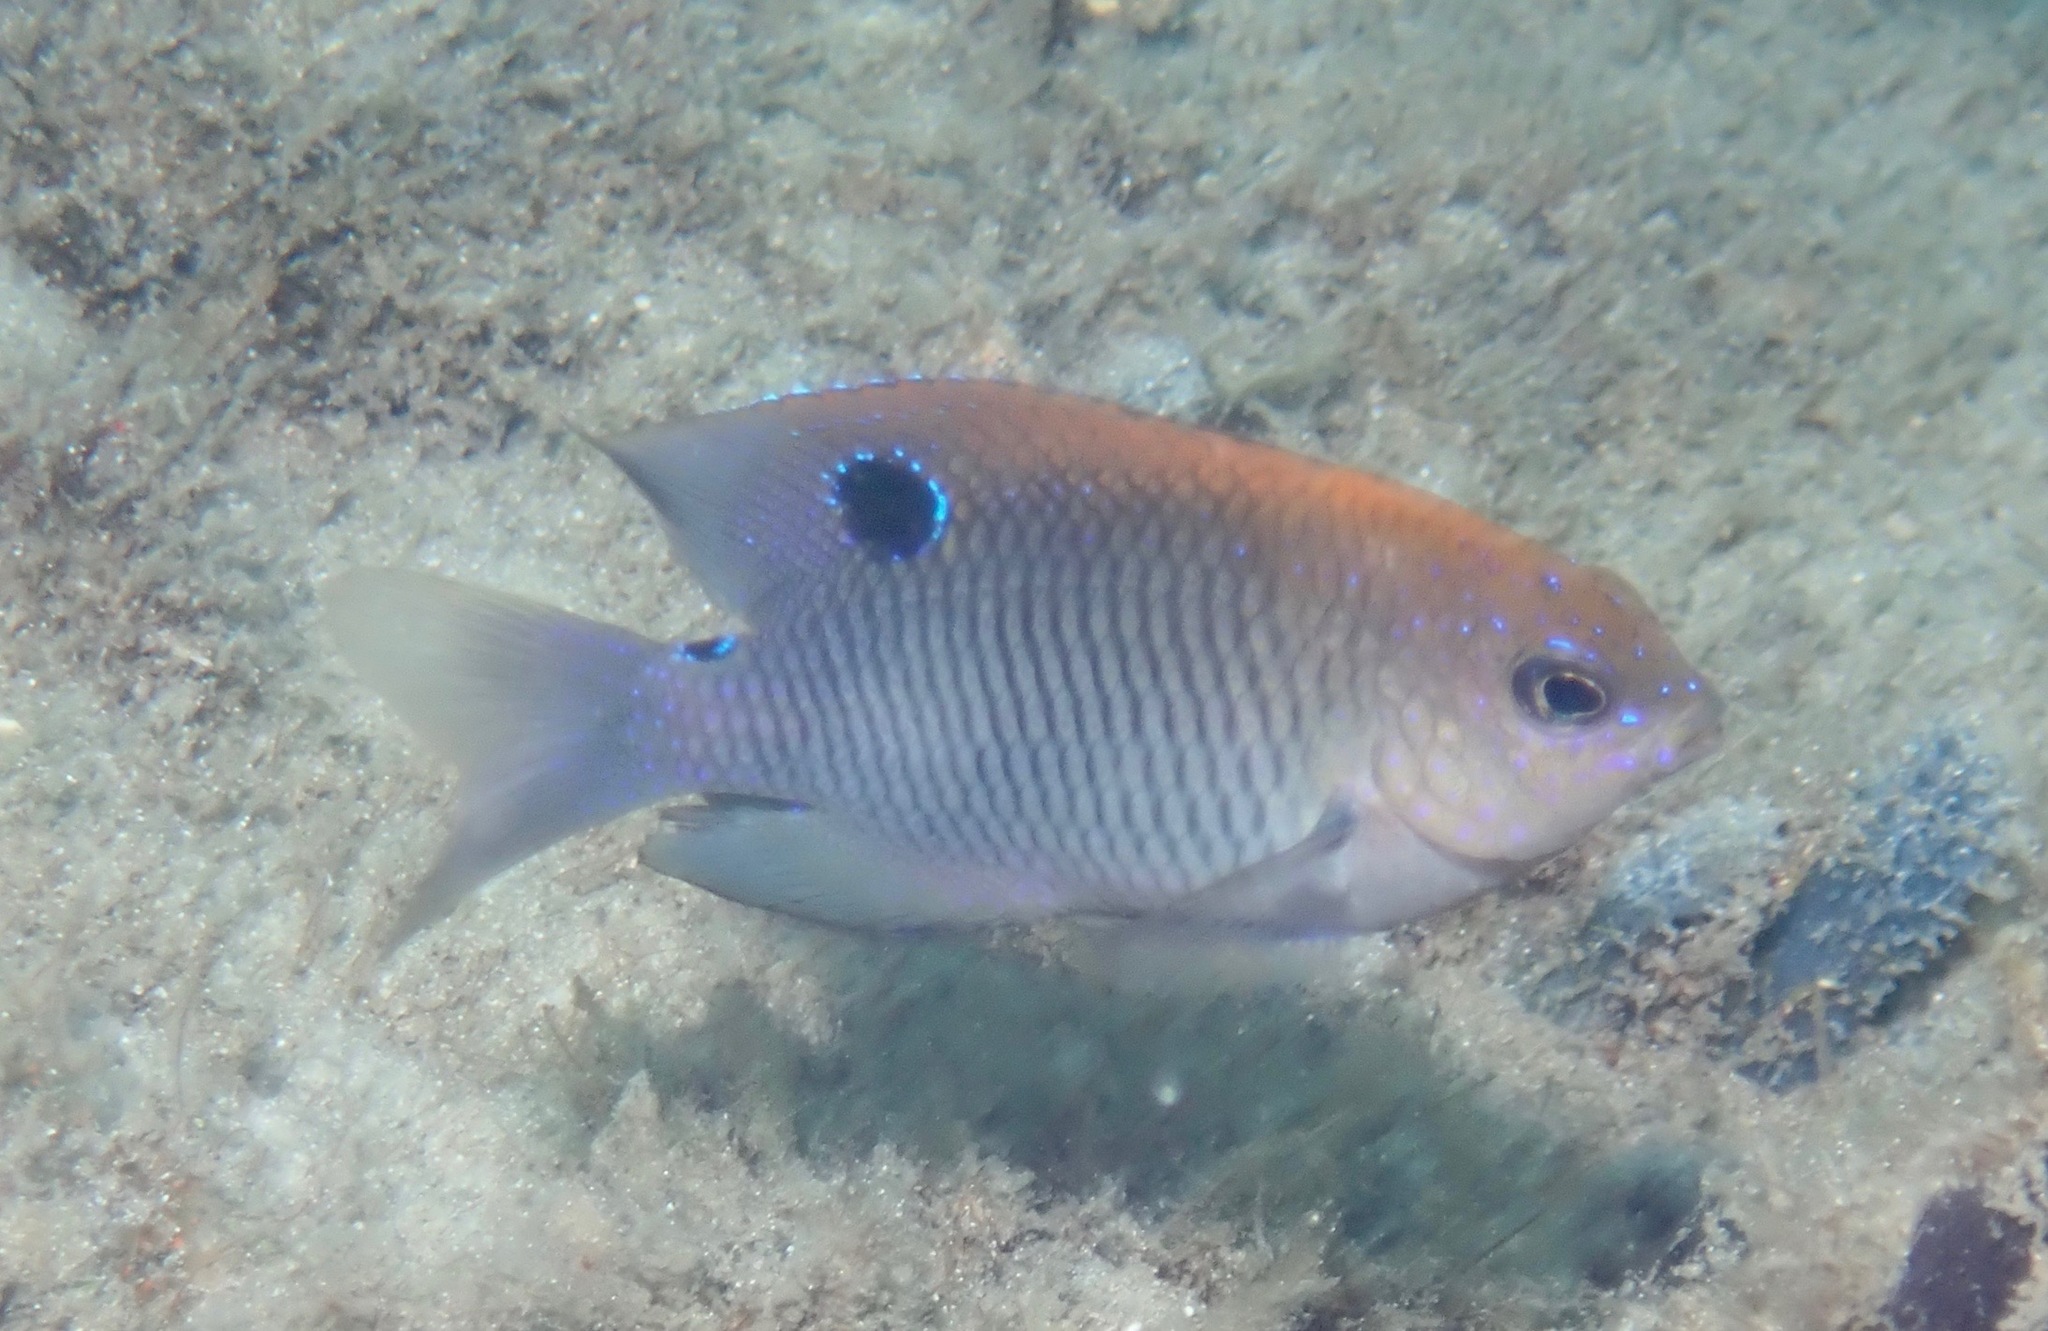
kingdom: Animalia
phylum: Chordata
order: Perciformes
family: Pomacentridae
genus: Stegastes
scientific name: Stegastes adustus
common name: Dusky damselfish
